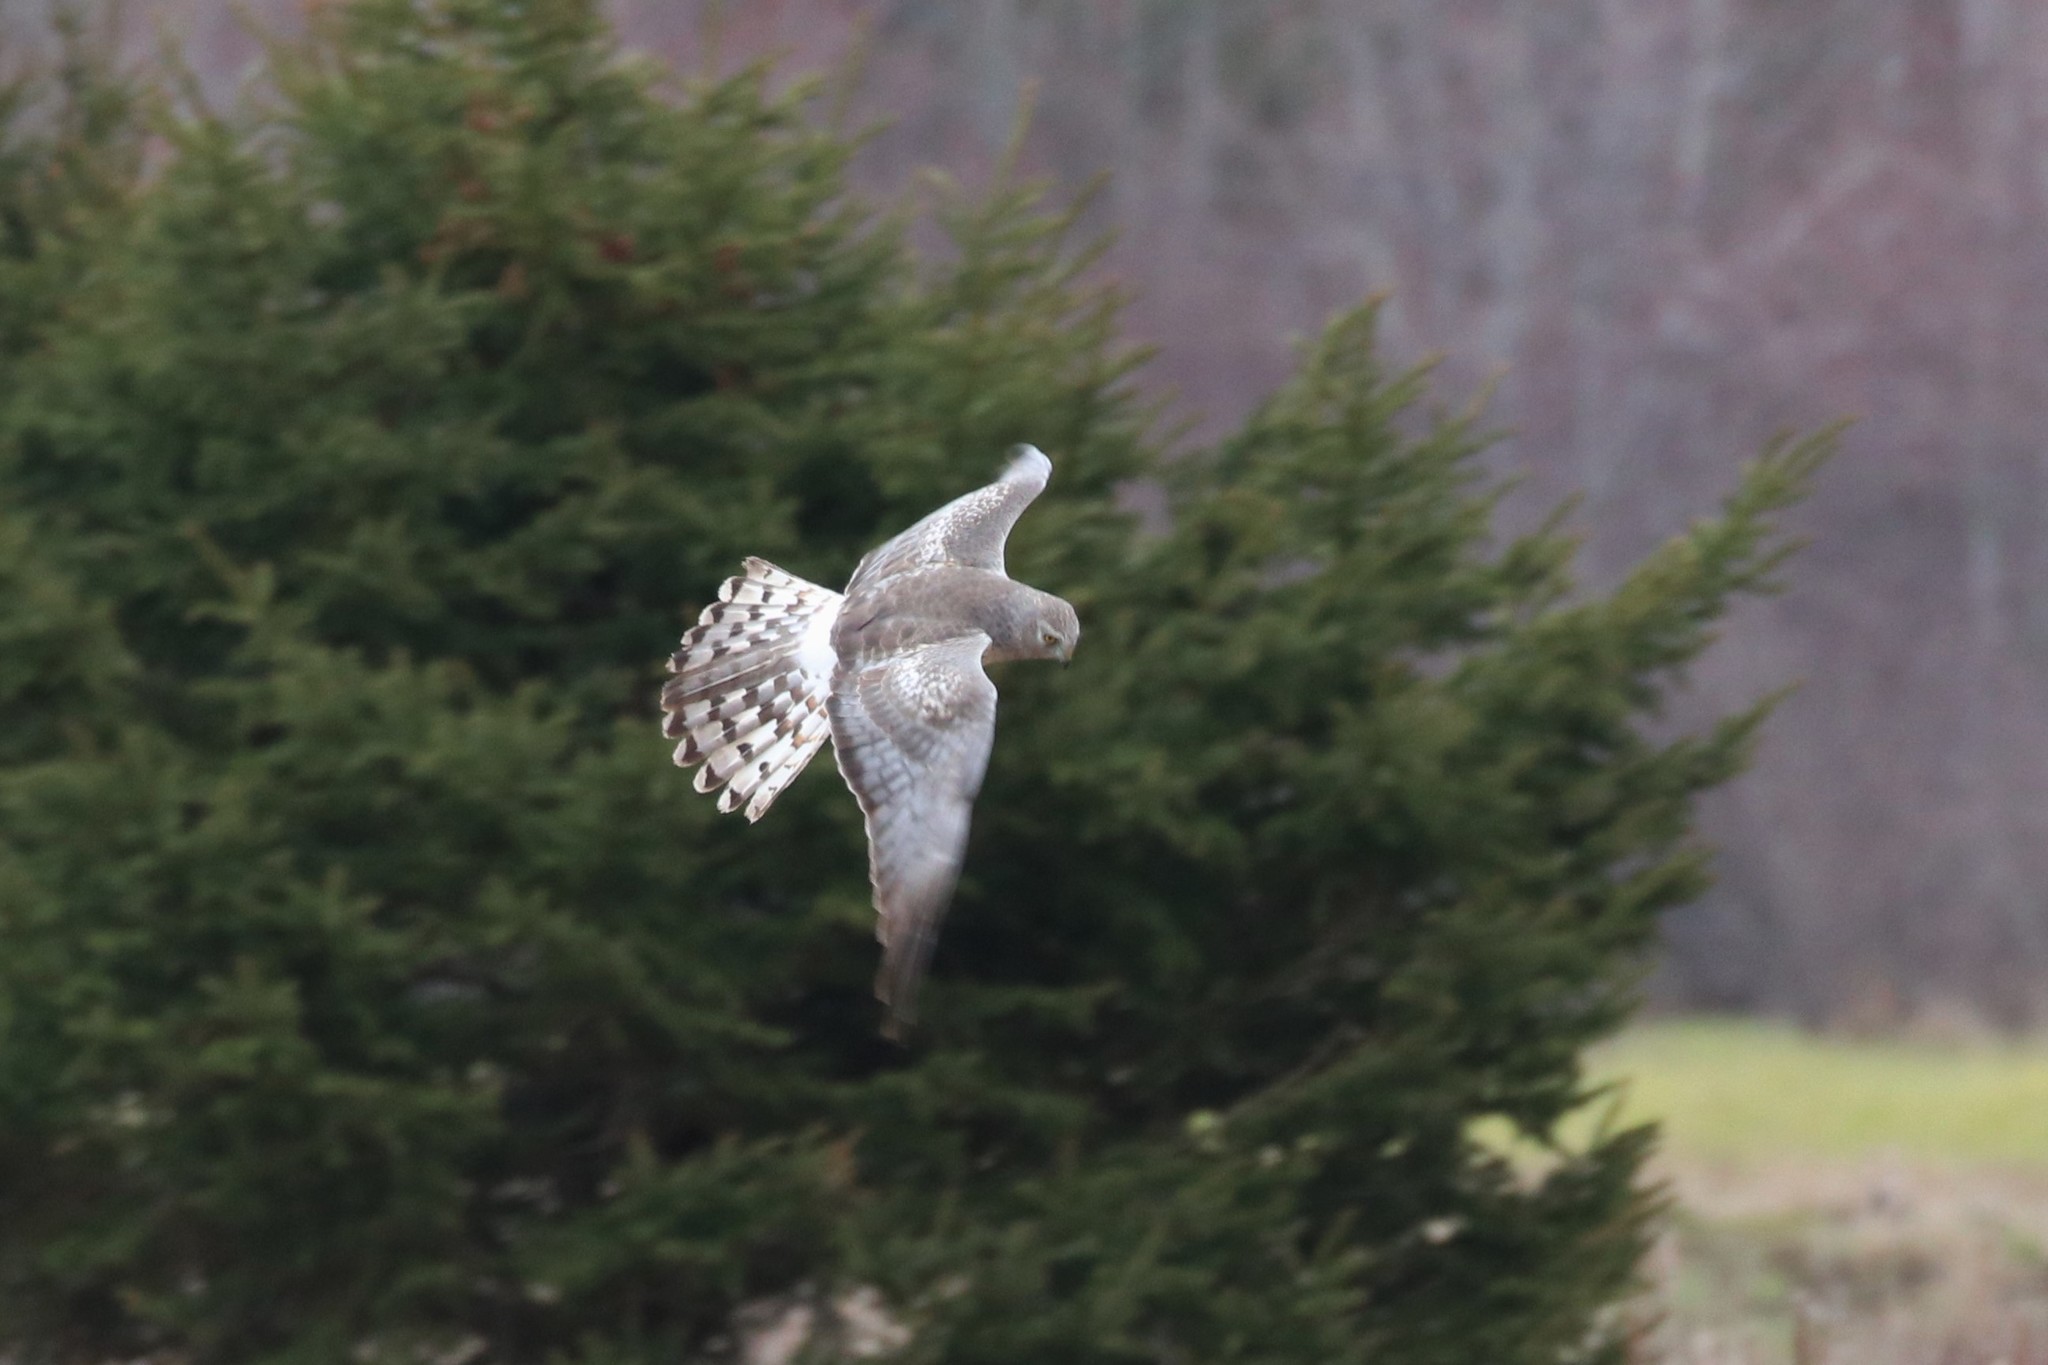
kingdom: Animalia
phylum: Chordata
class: Aves
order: Accipitriformes
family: Accipitridae
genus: Circus
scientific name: Circus cyaneus
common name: Hen harrier
